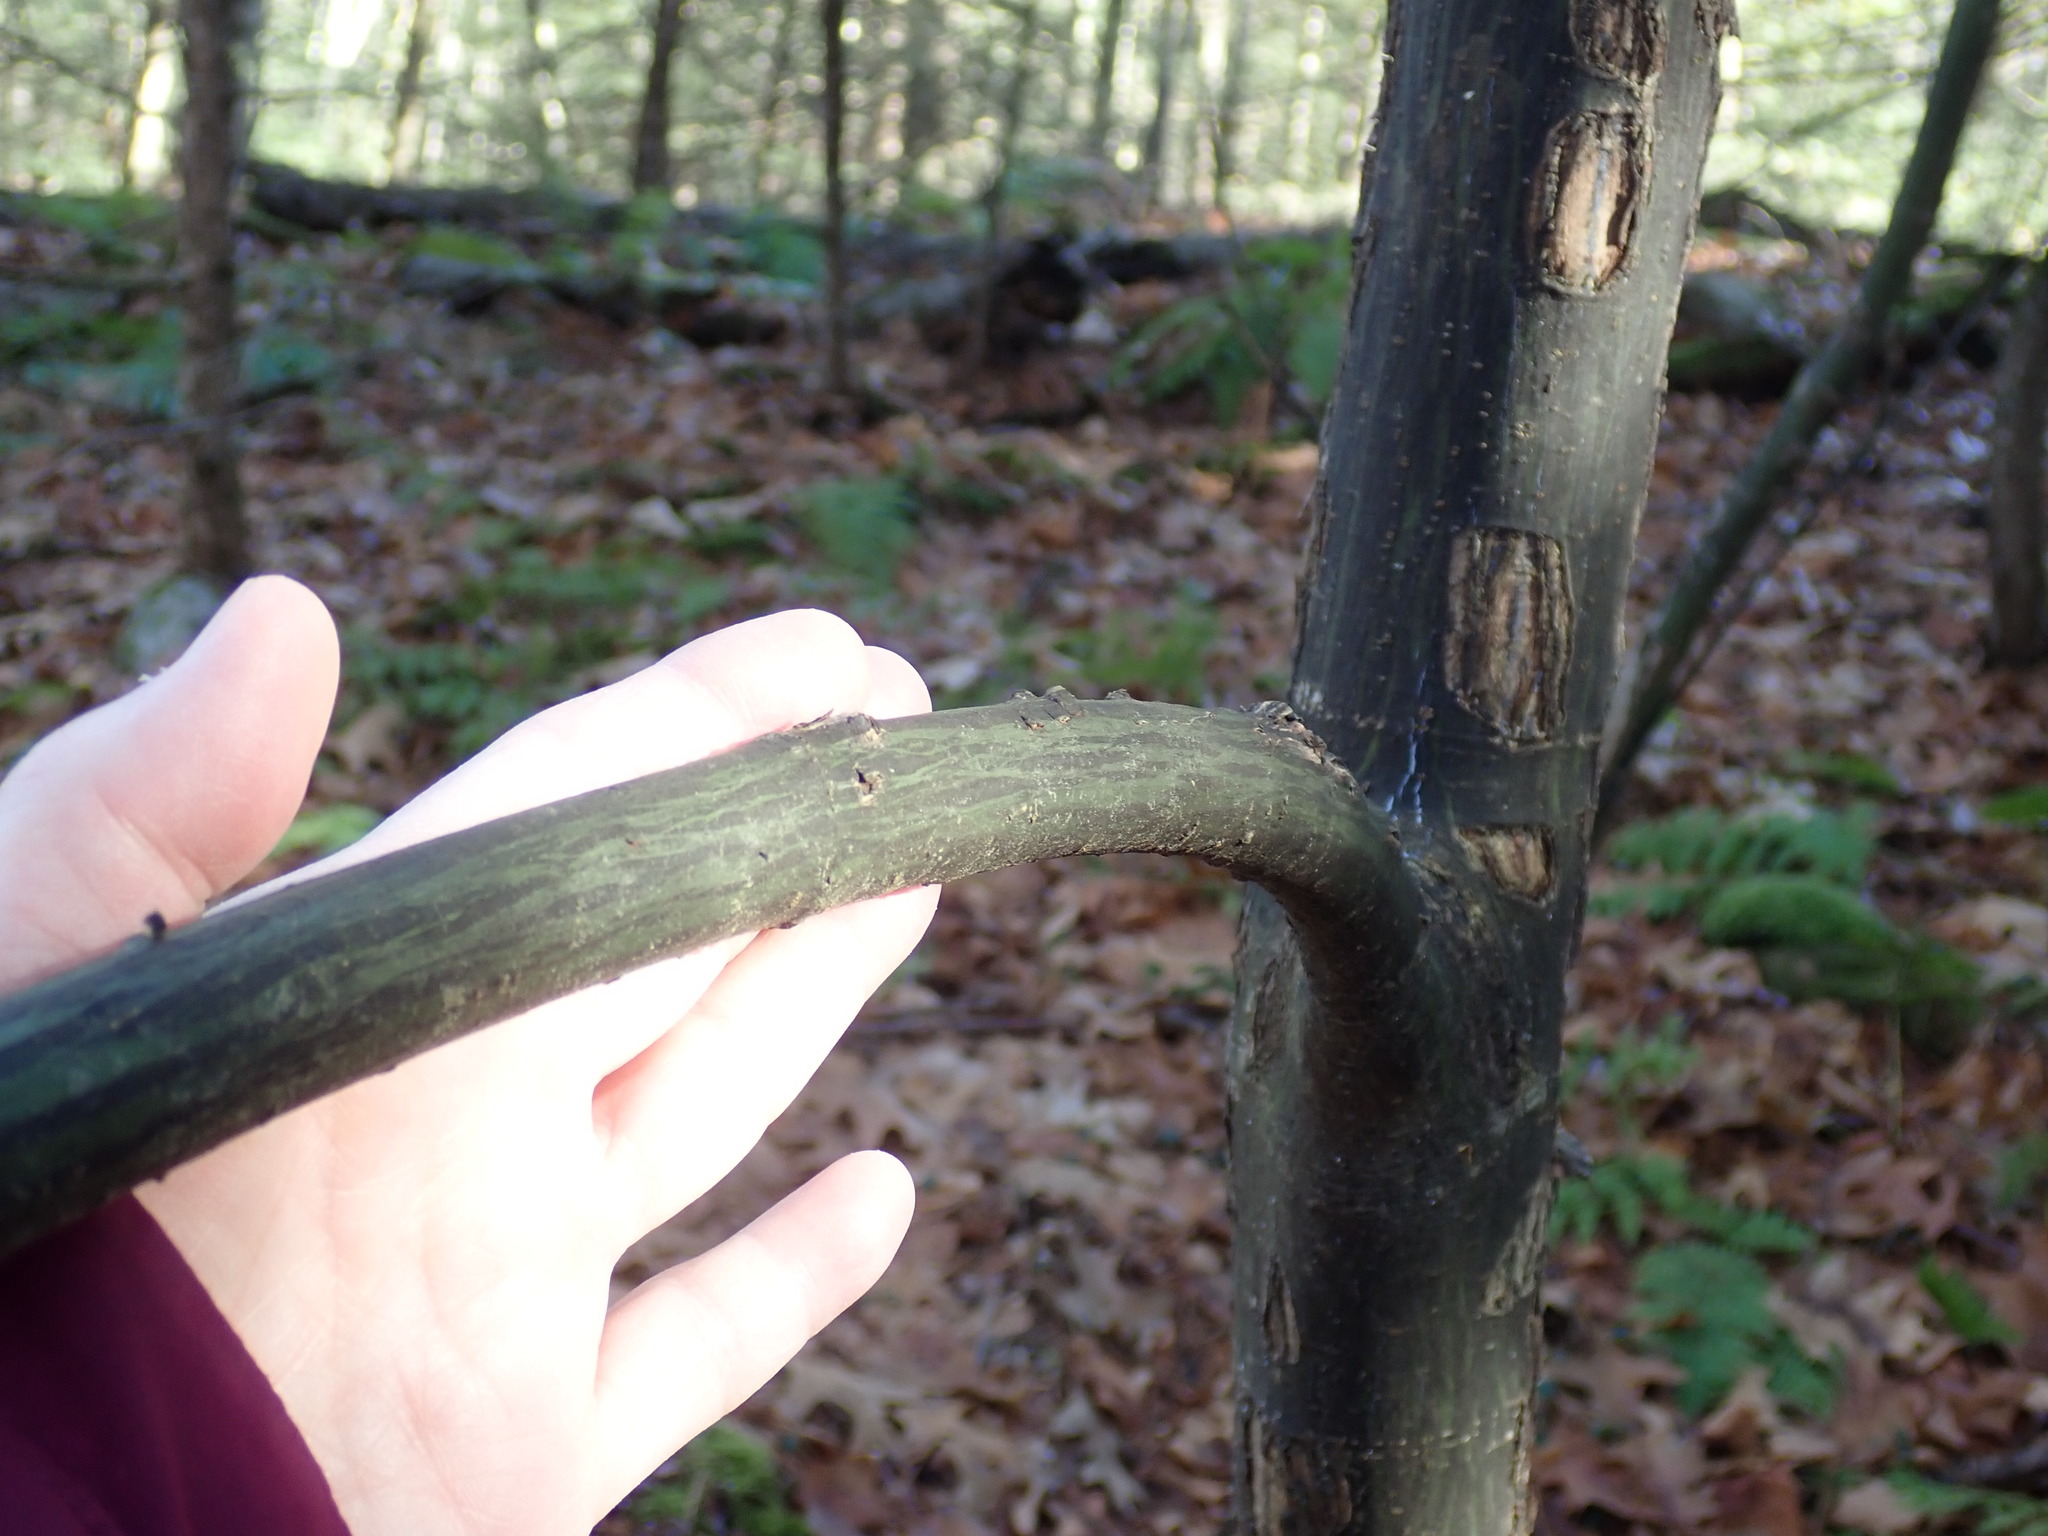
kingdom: Plantae
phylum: Tracheophyta
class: Magnoliopsida
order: Sapindales
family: Sapindaceae
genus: Acer
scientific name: Acer pensylvanicum
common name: Moosewood
